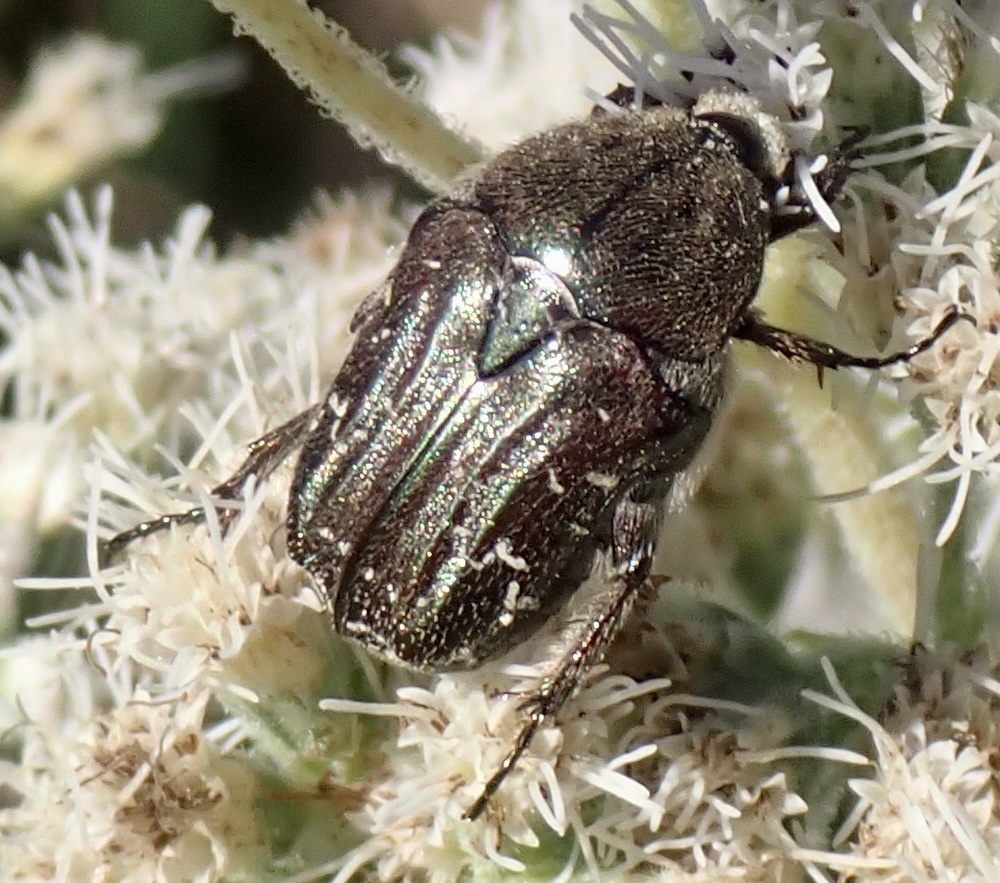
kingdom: Animalia
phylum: Arthropoda
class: Insecta
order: Coleoptera
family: Scarabaeidae
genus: Euphoria
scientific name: Euphoria sepulcralis
